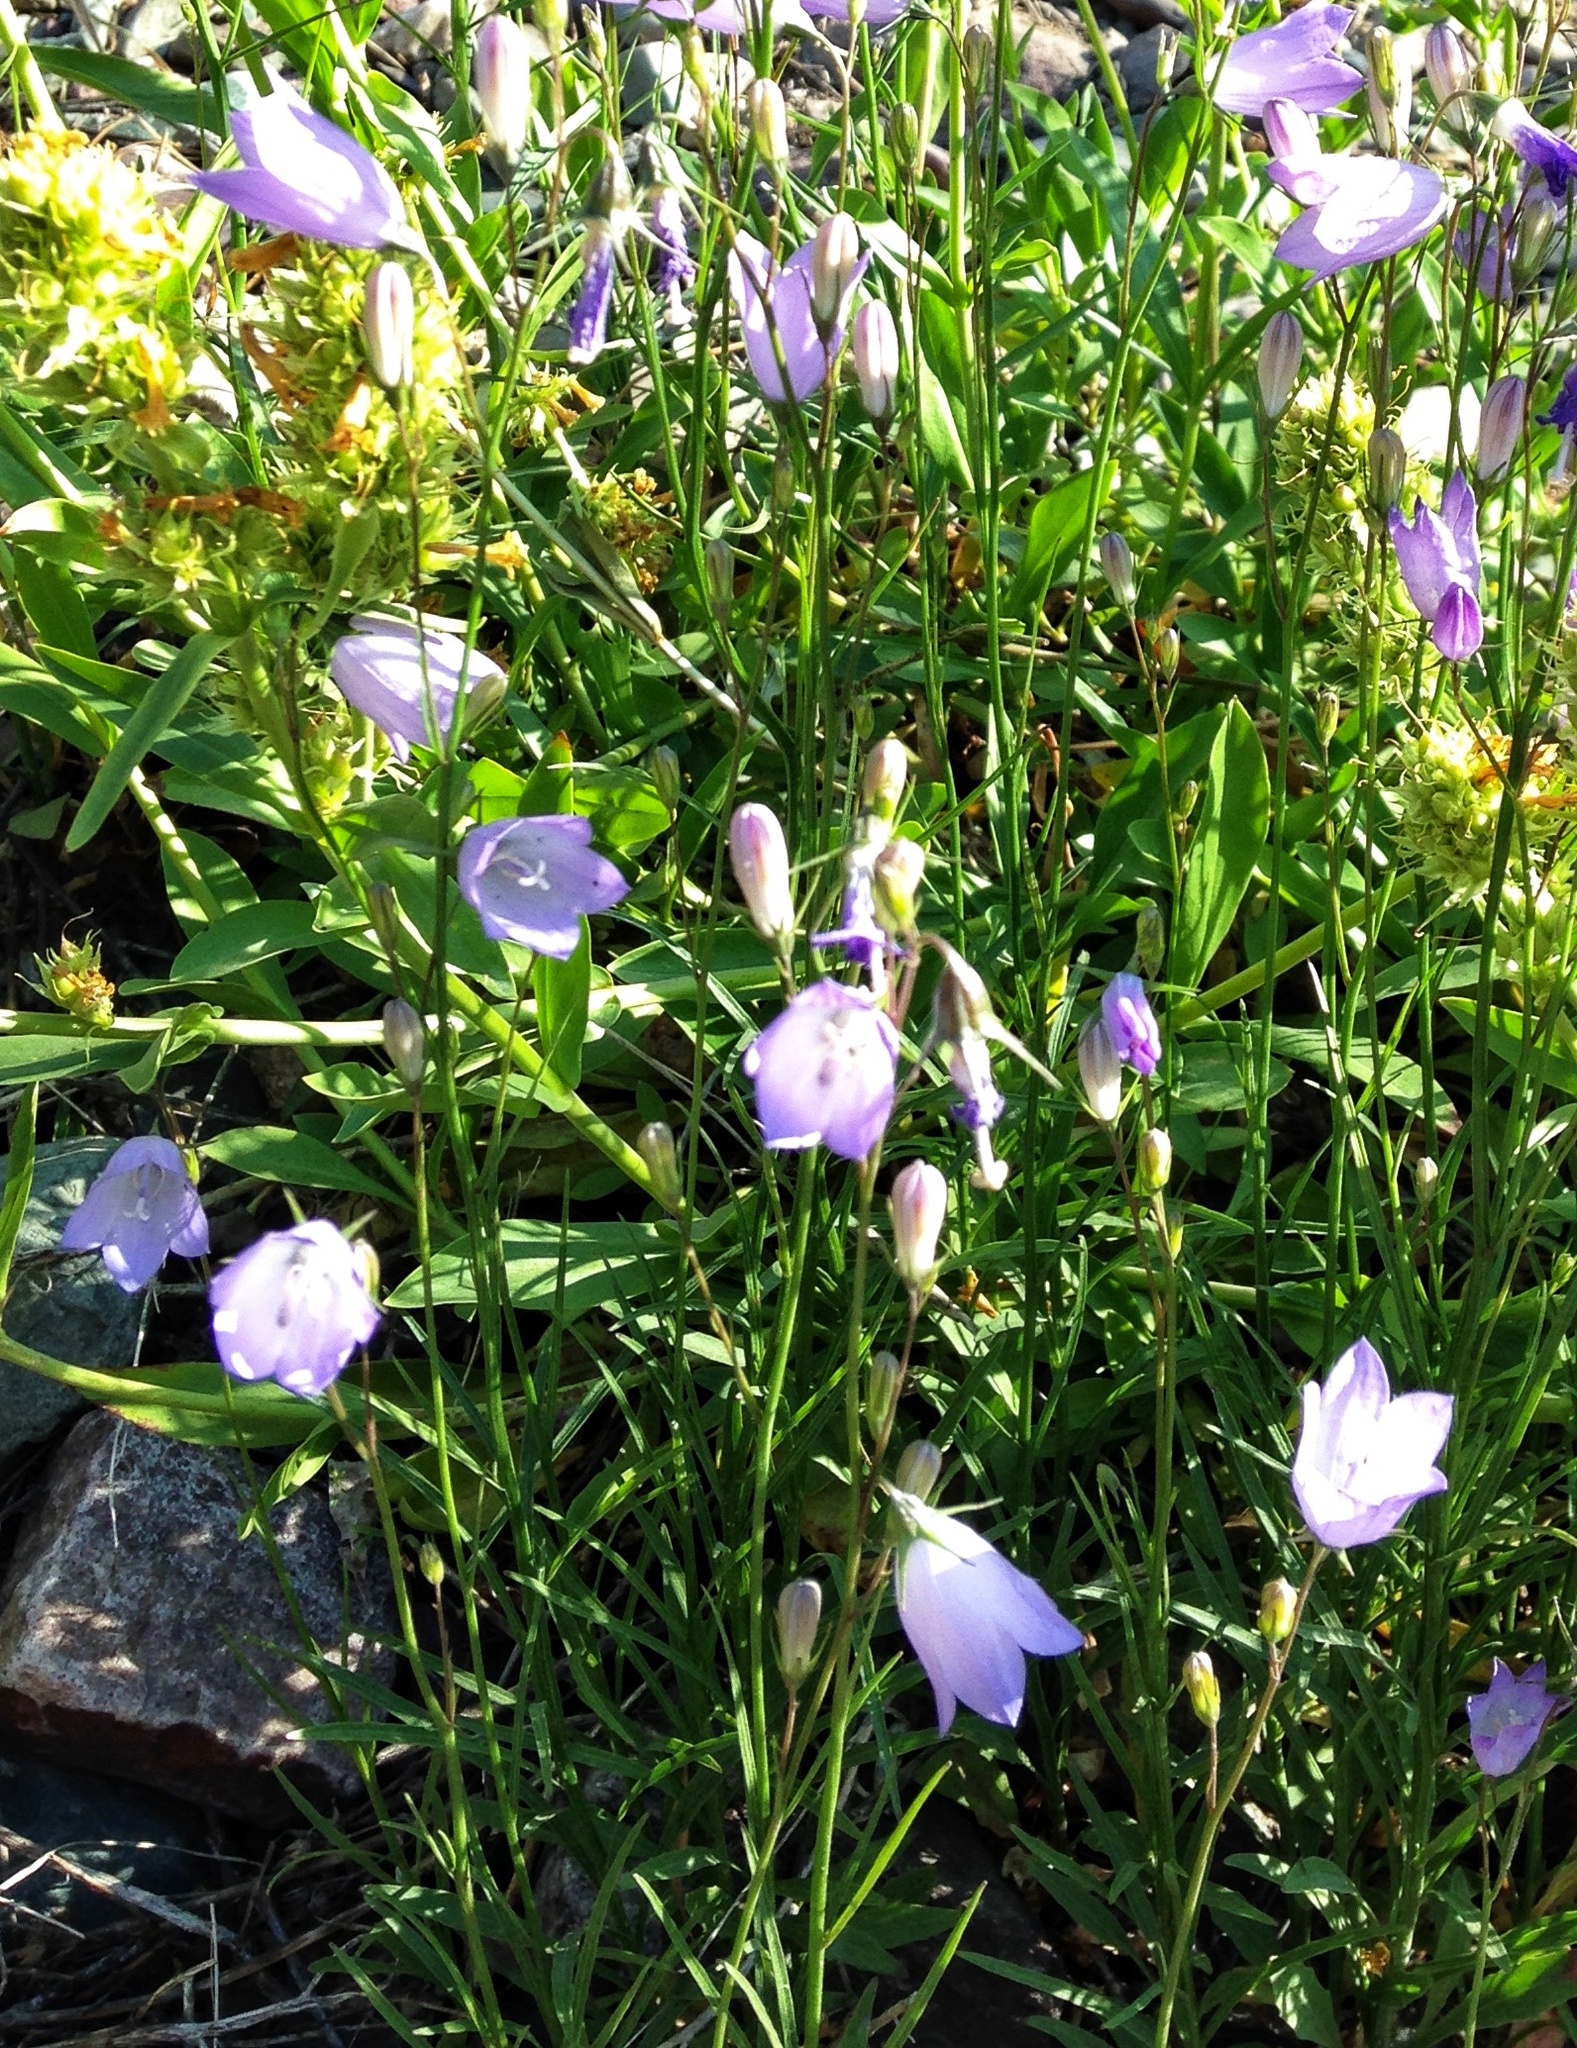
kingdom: Plantae
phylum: Tracheophyta
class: Magnoliopsida
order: Asterales
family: Campanulaceae
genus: Campanula
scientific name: Campanula petiolata
